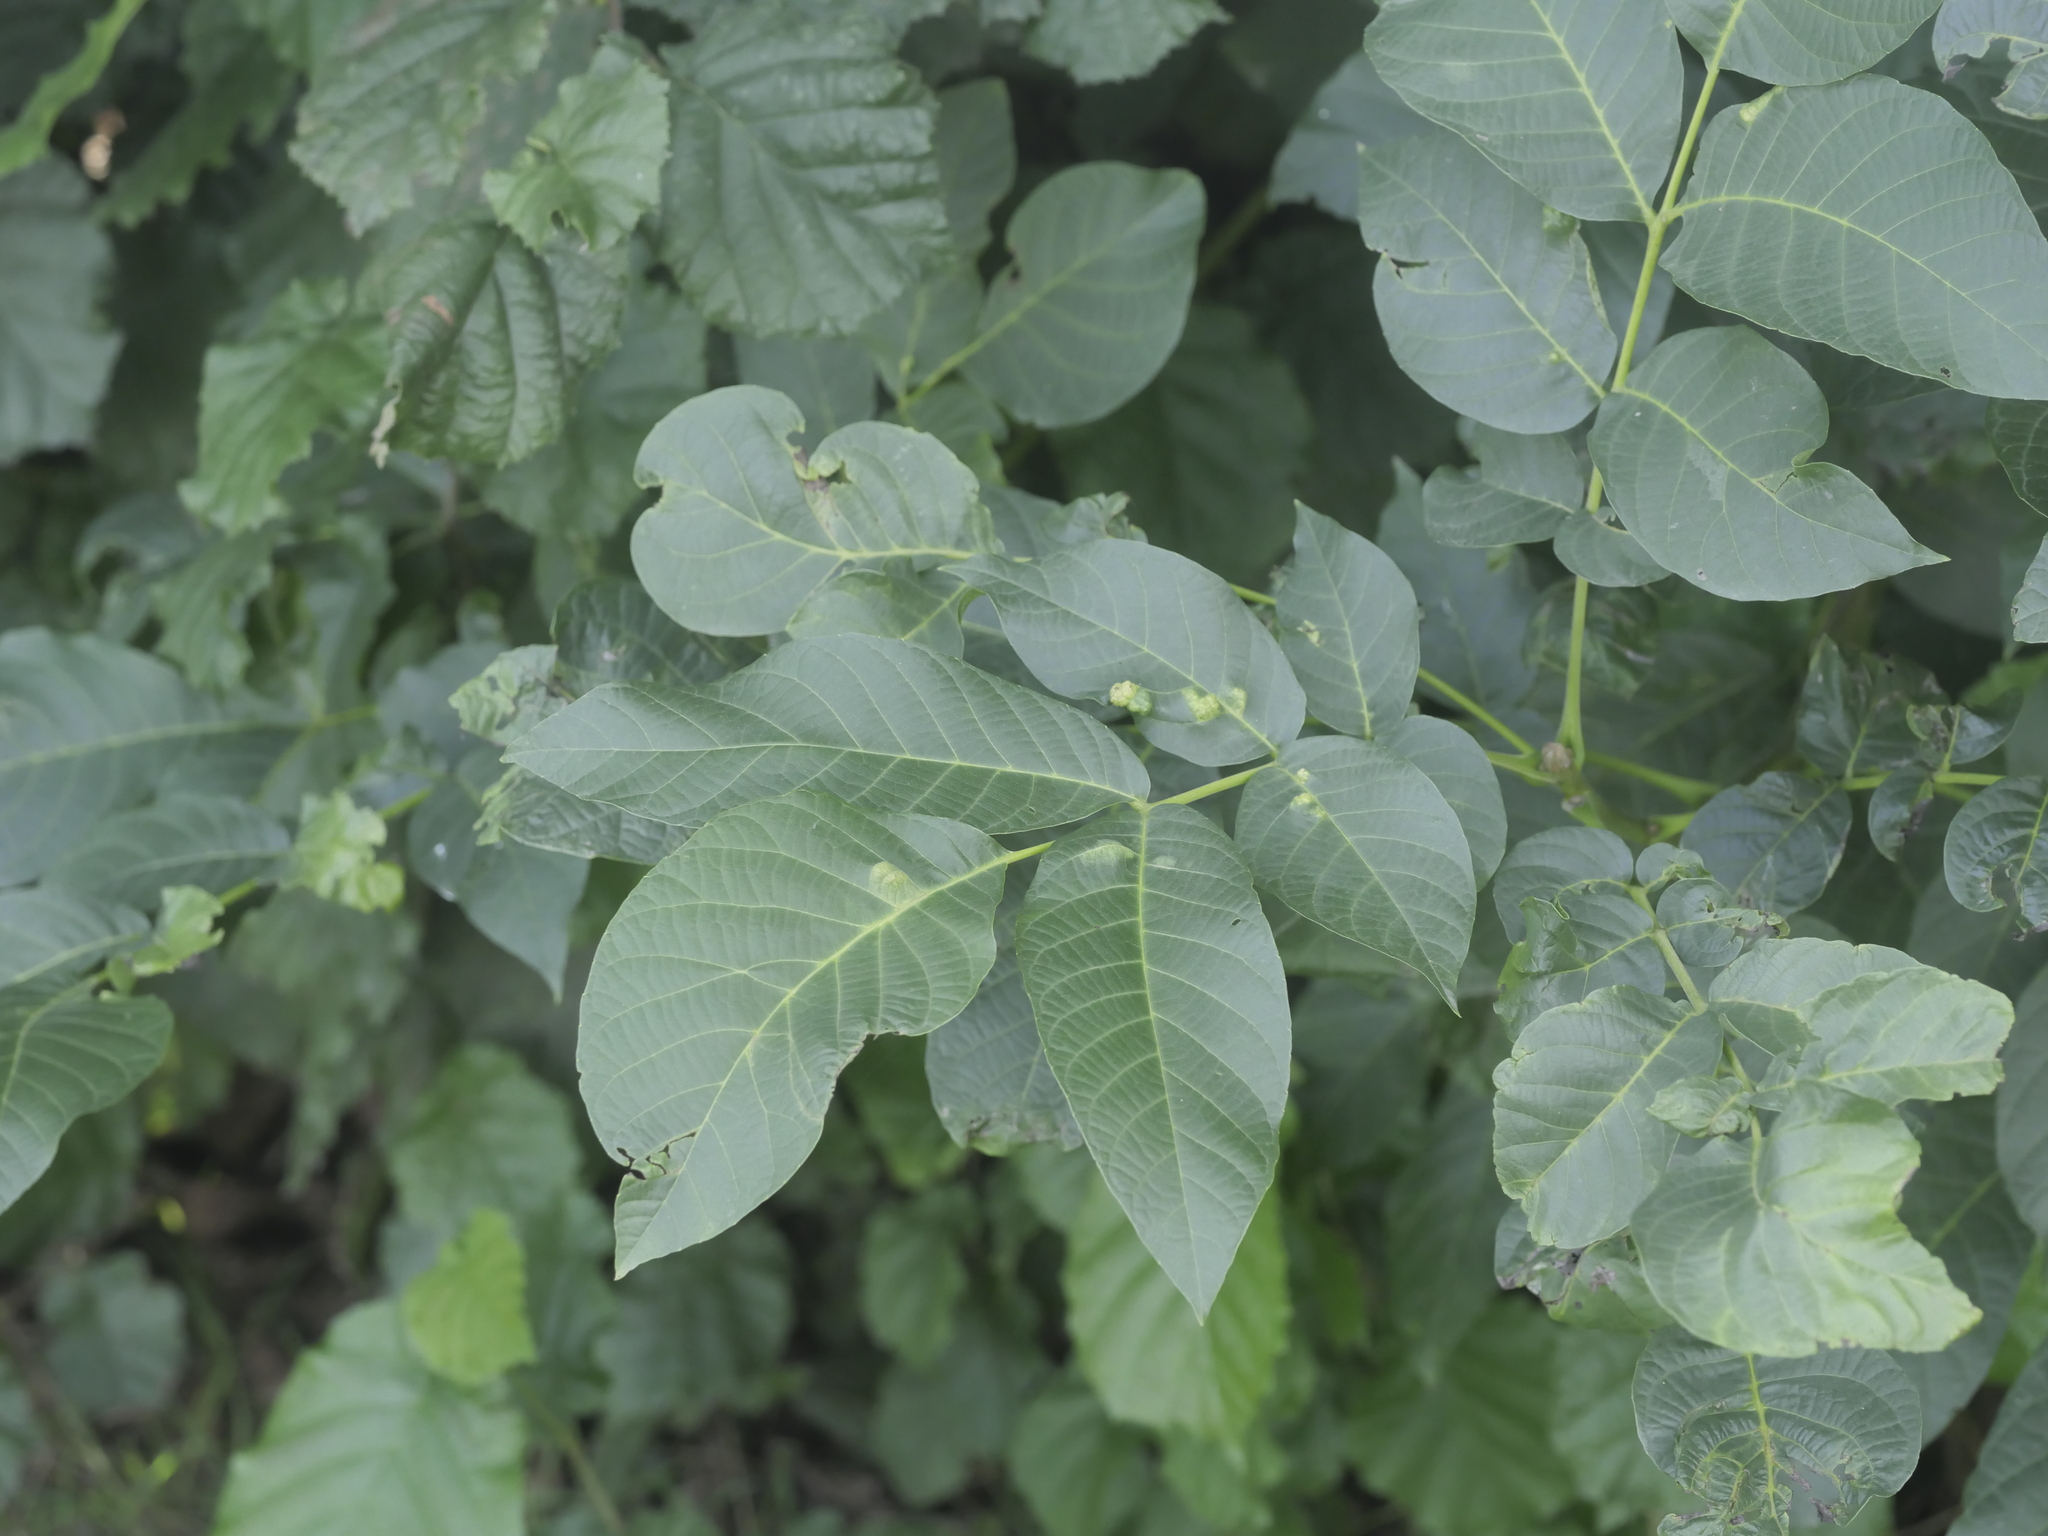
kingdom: Plantae
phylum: Tracheophyta
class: Magnoliopsida
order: Fagales
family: Juglandaceae
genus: Juglans
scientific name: Juglans regia
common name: Walnut
